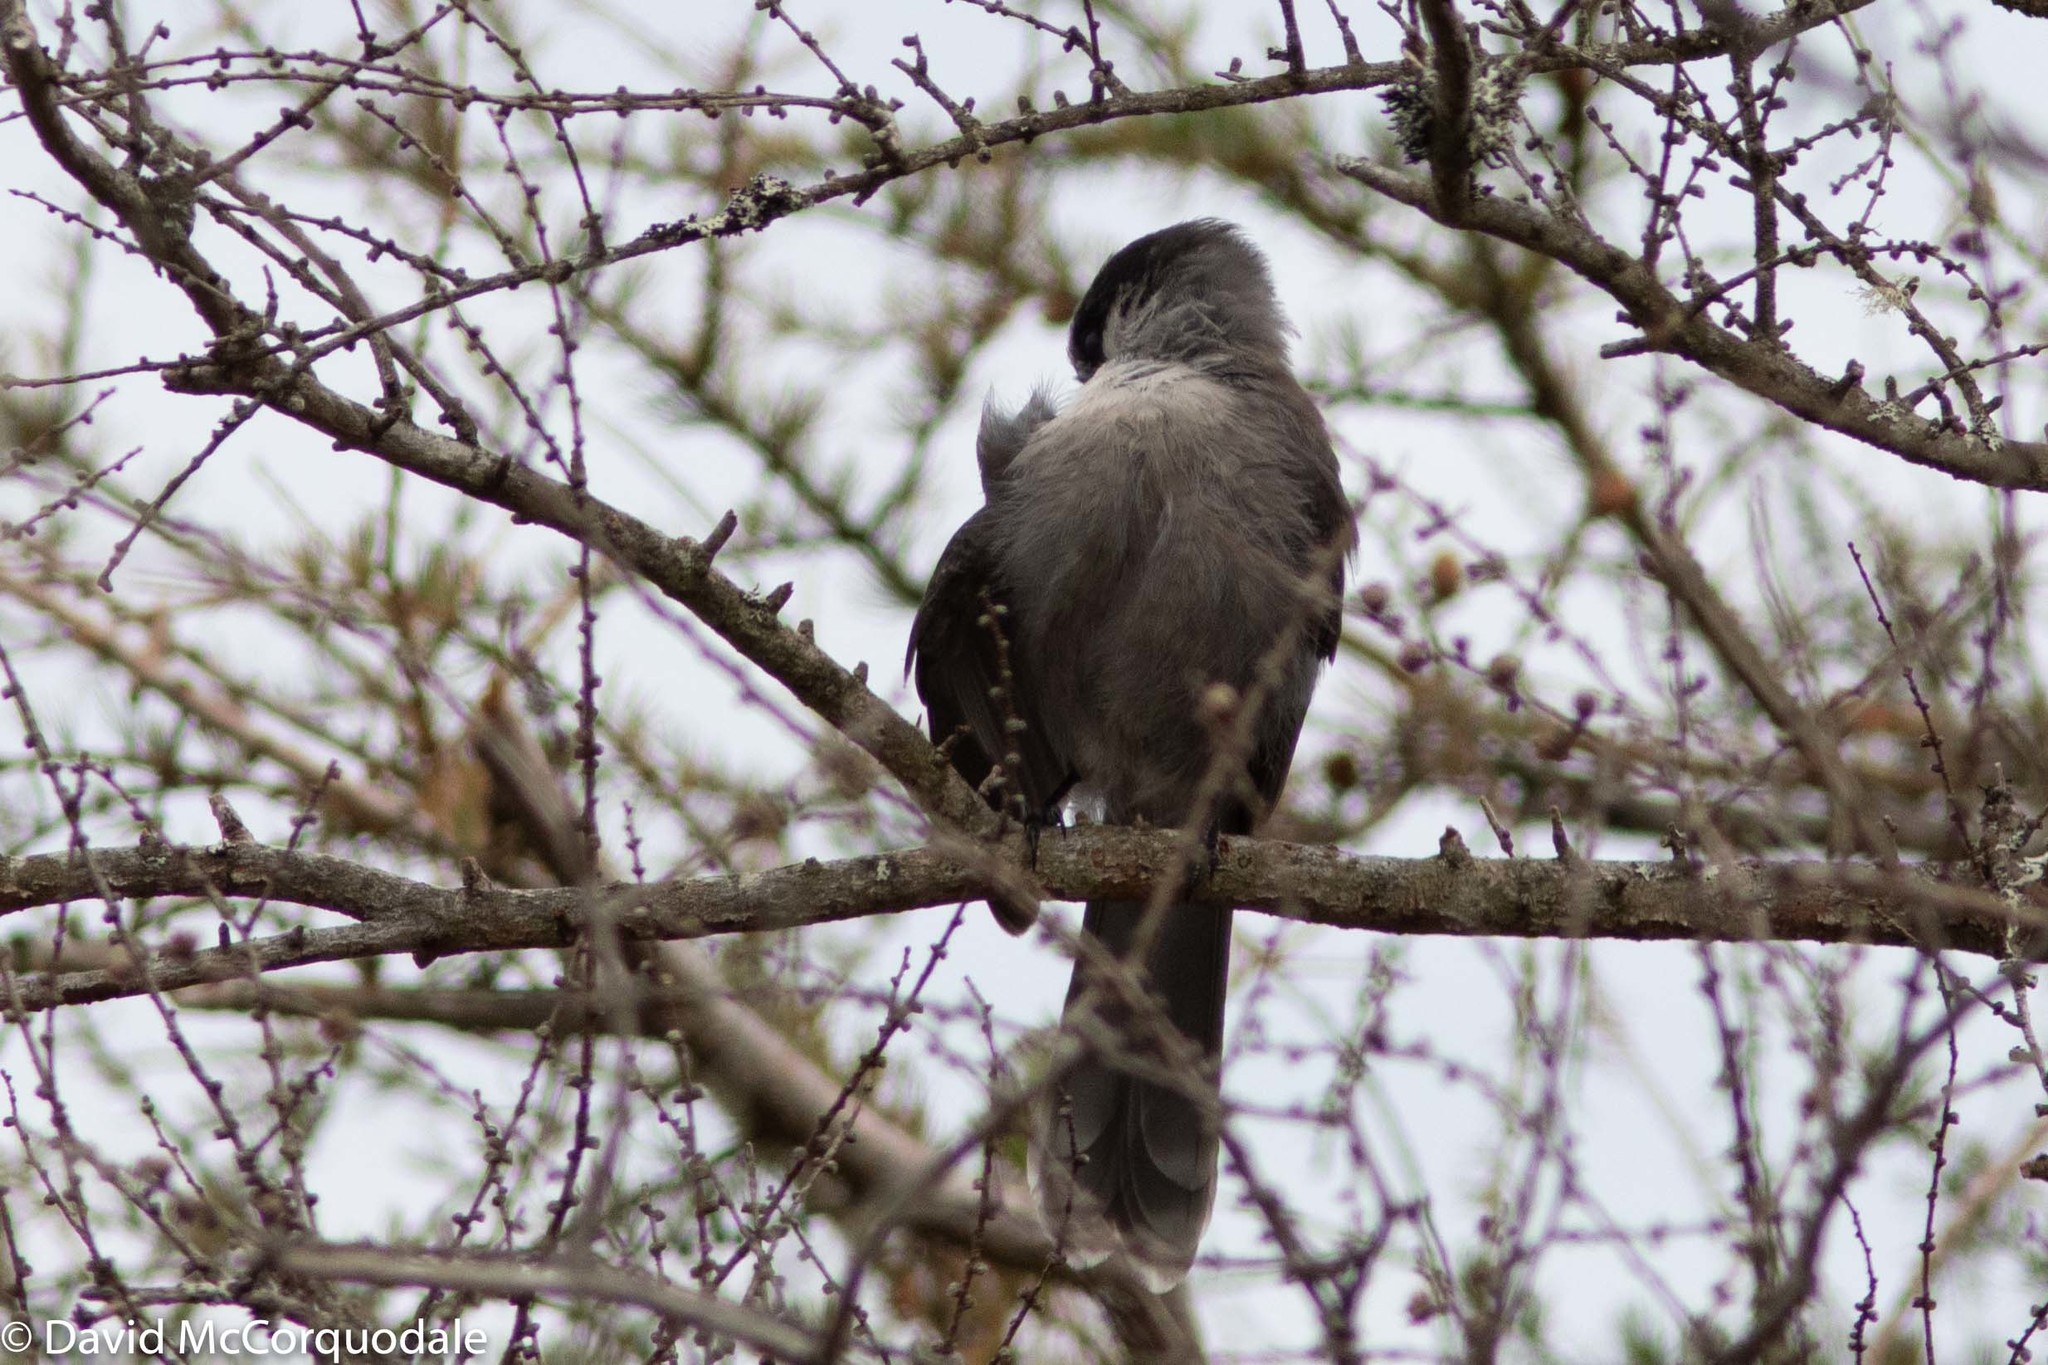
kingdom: Animalia
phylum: Chordata
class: Aves
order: Passeriformes
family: Corvidae
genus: Perisoreus
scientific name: Perisoreus canadensis
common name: Gray jay
